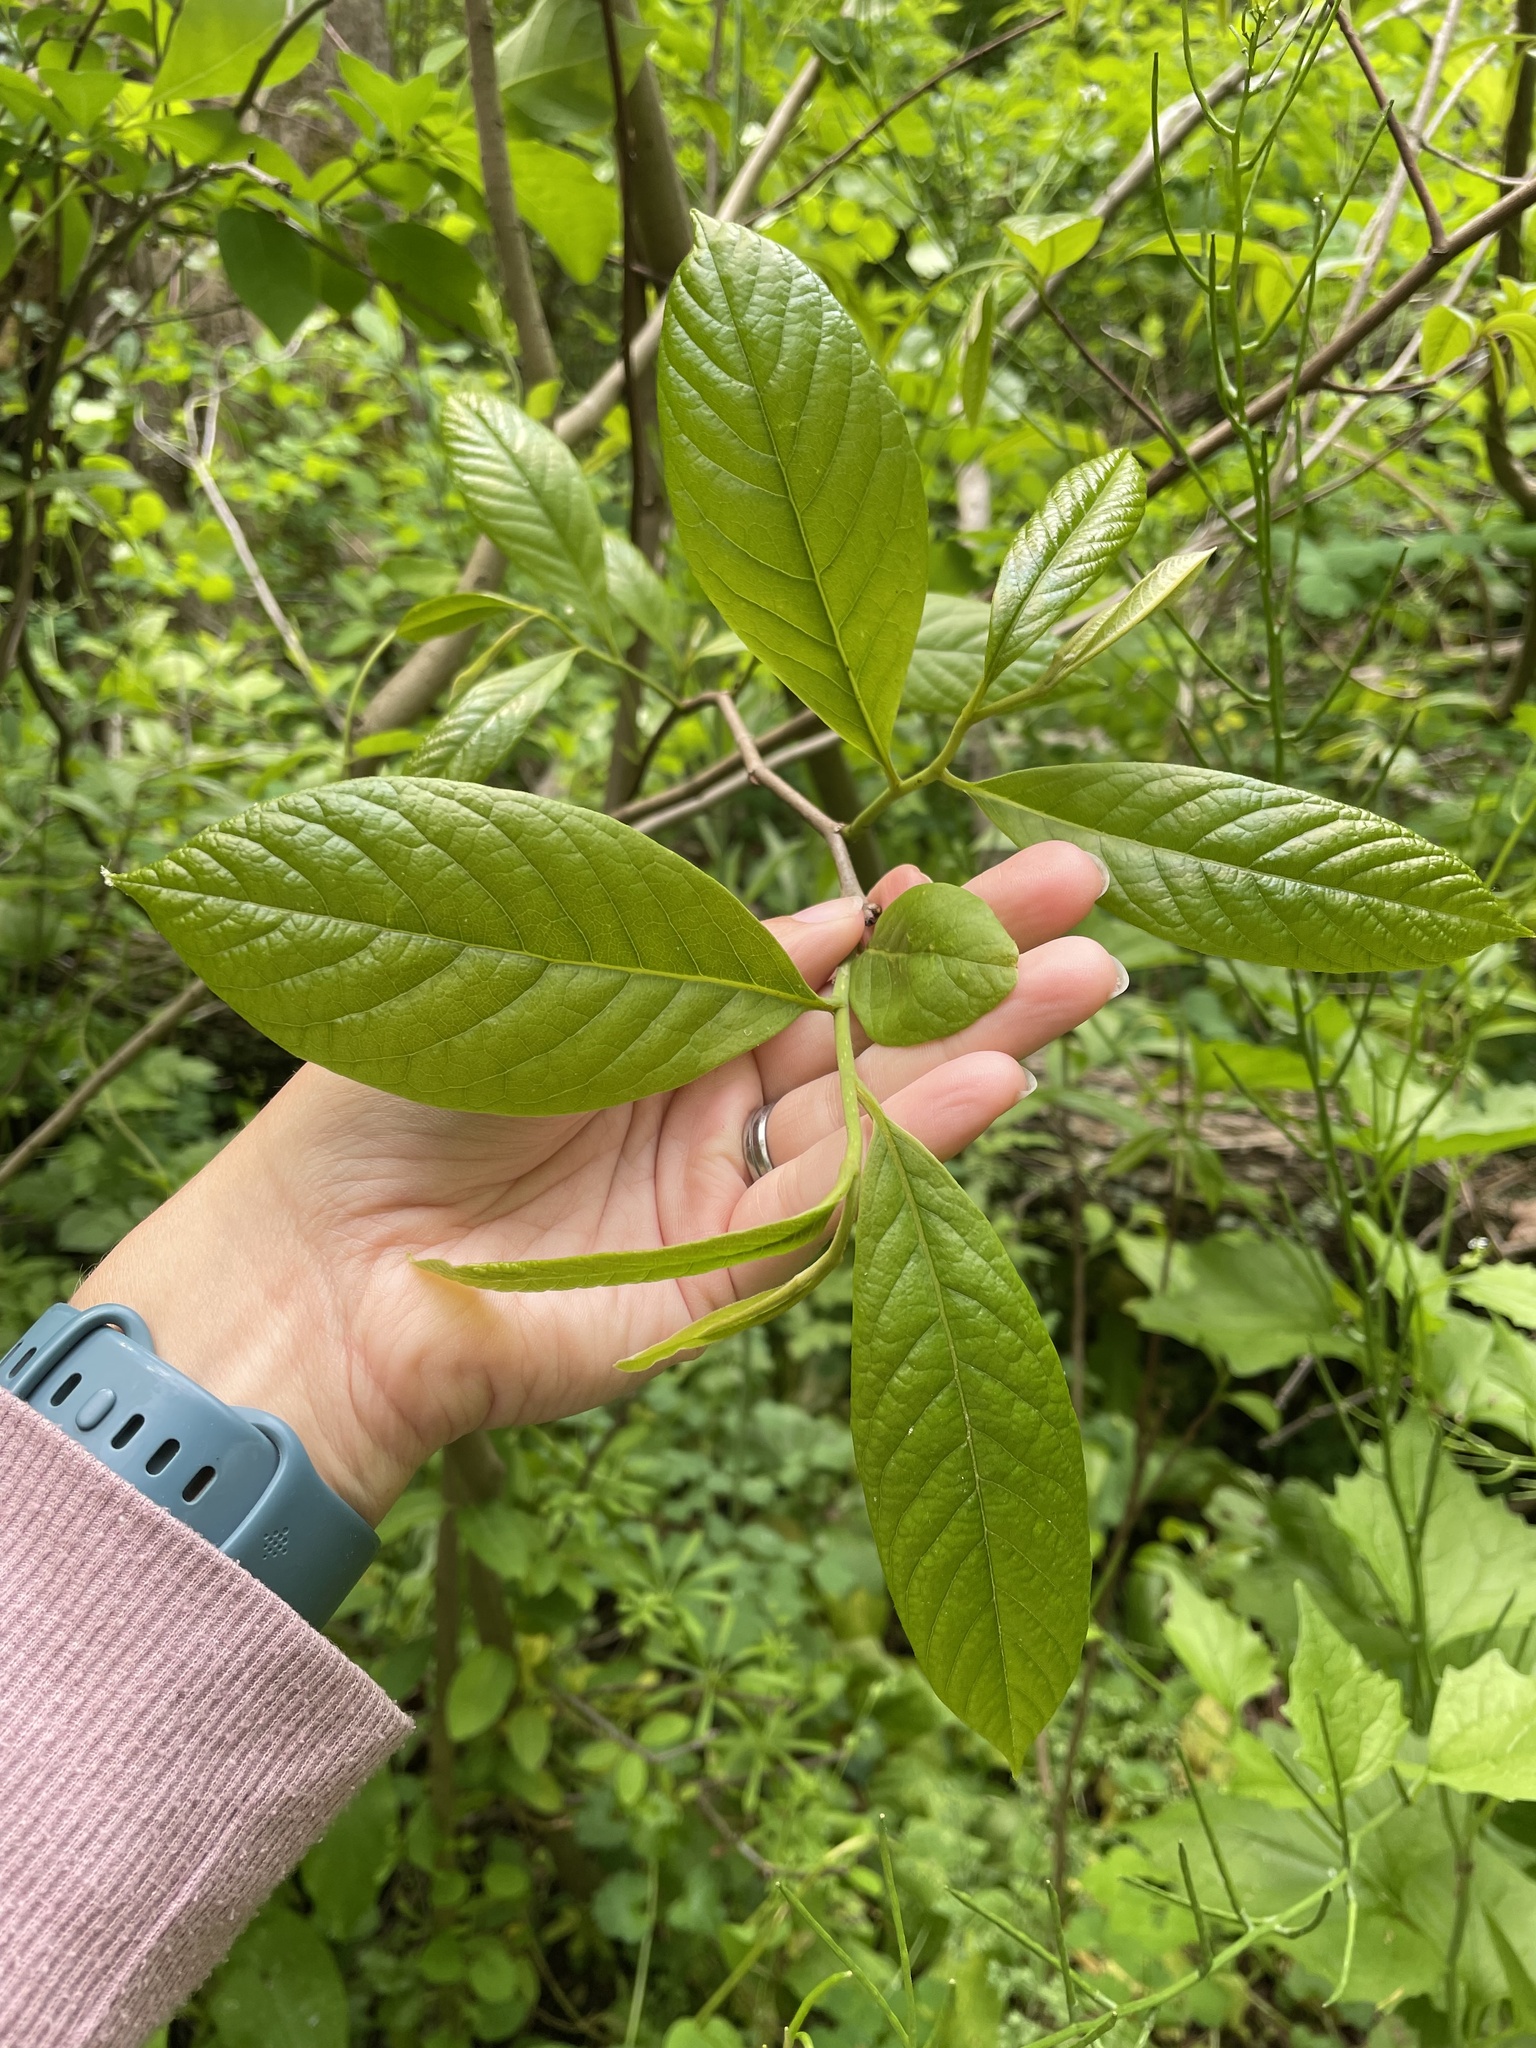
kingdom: Plantae
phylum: Tracheophyta
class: Magnoliopsida
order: Magnoliales
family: Annonaceae
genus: Asimina
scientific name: Asimina triloba
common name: Dog-banana
